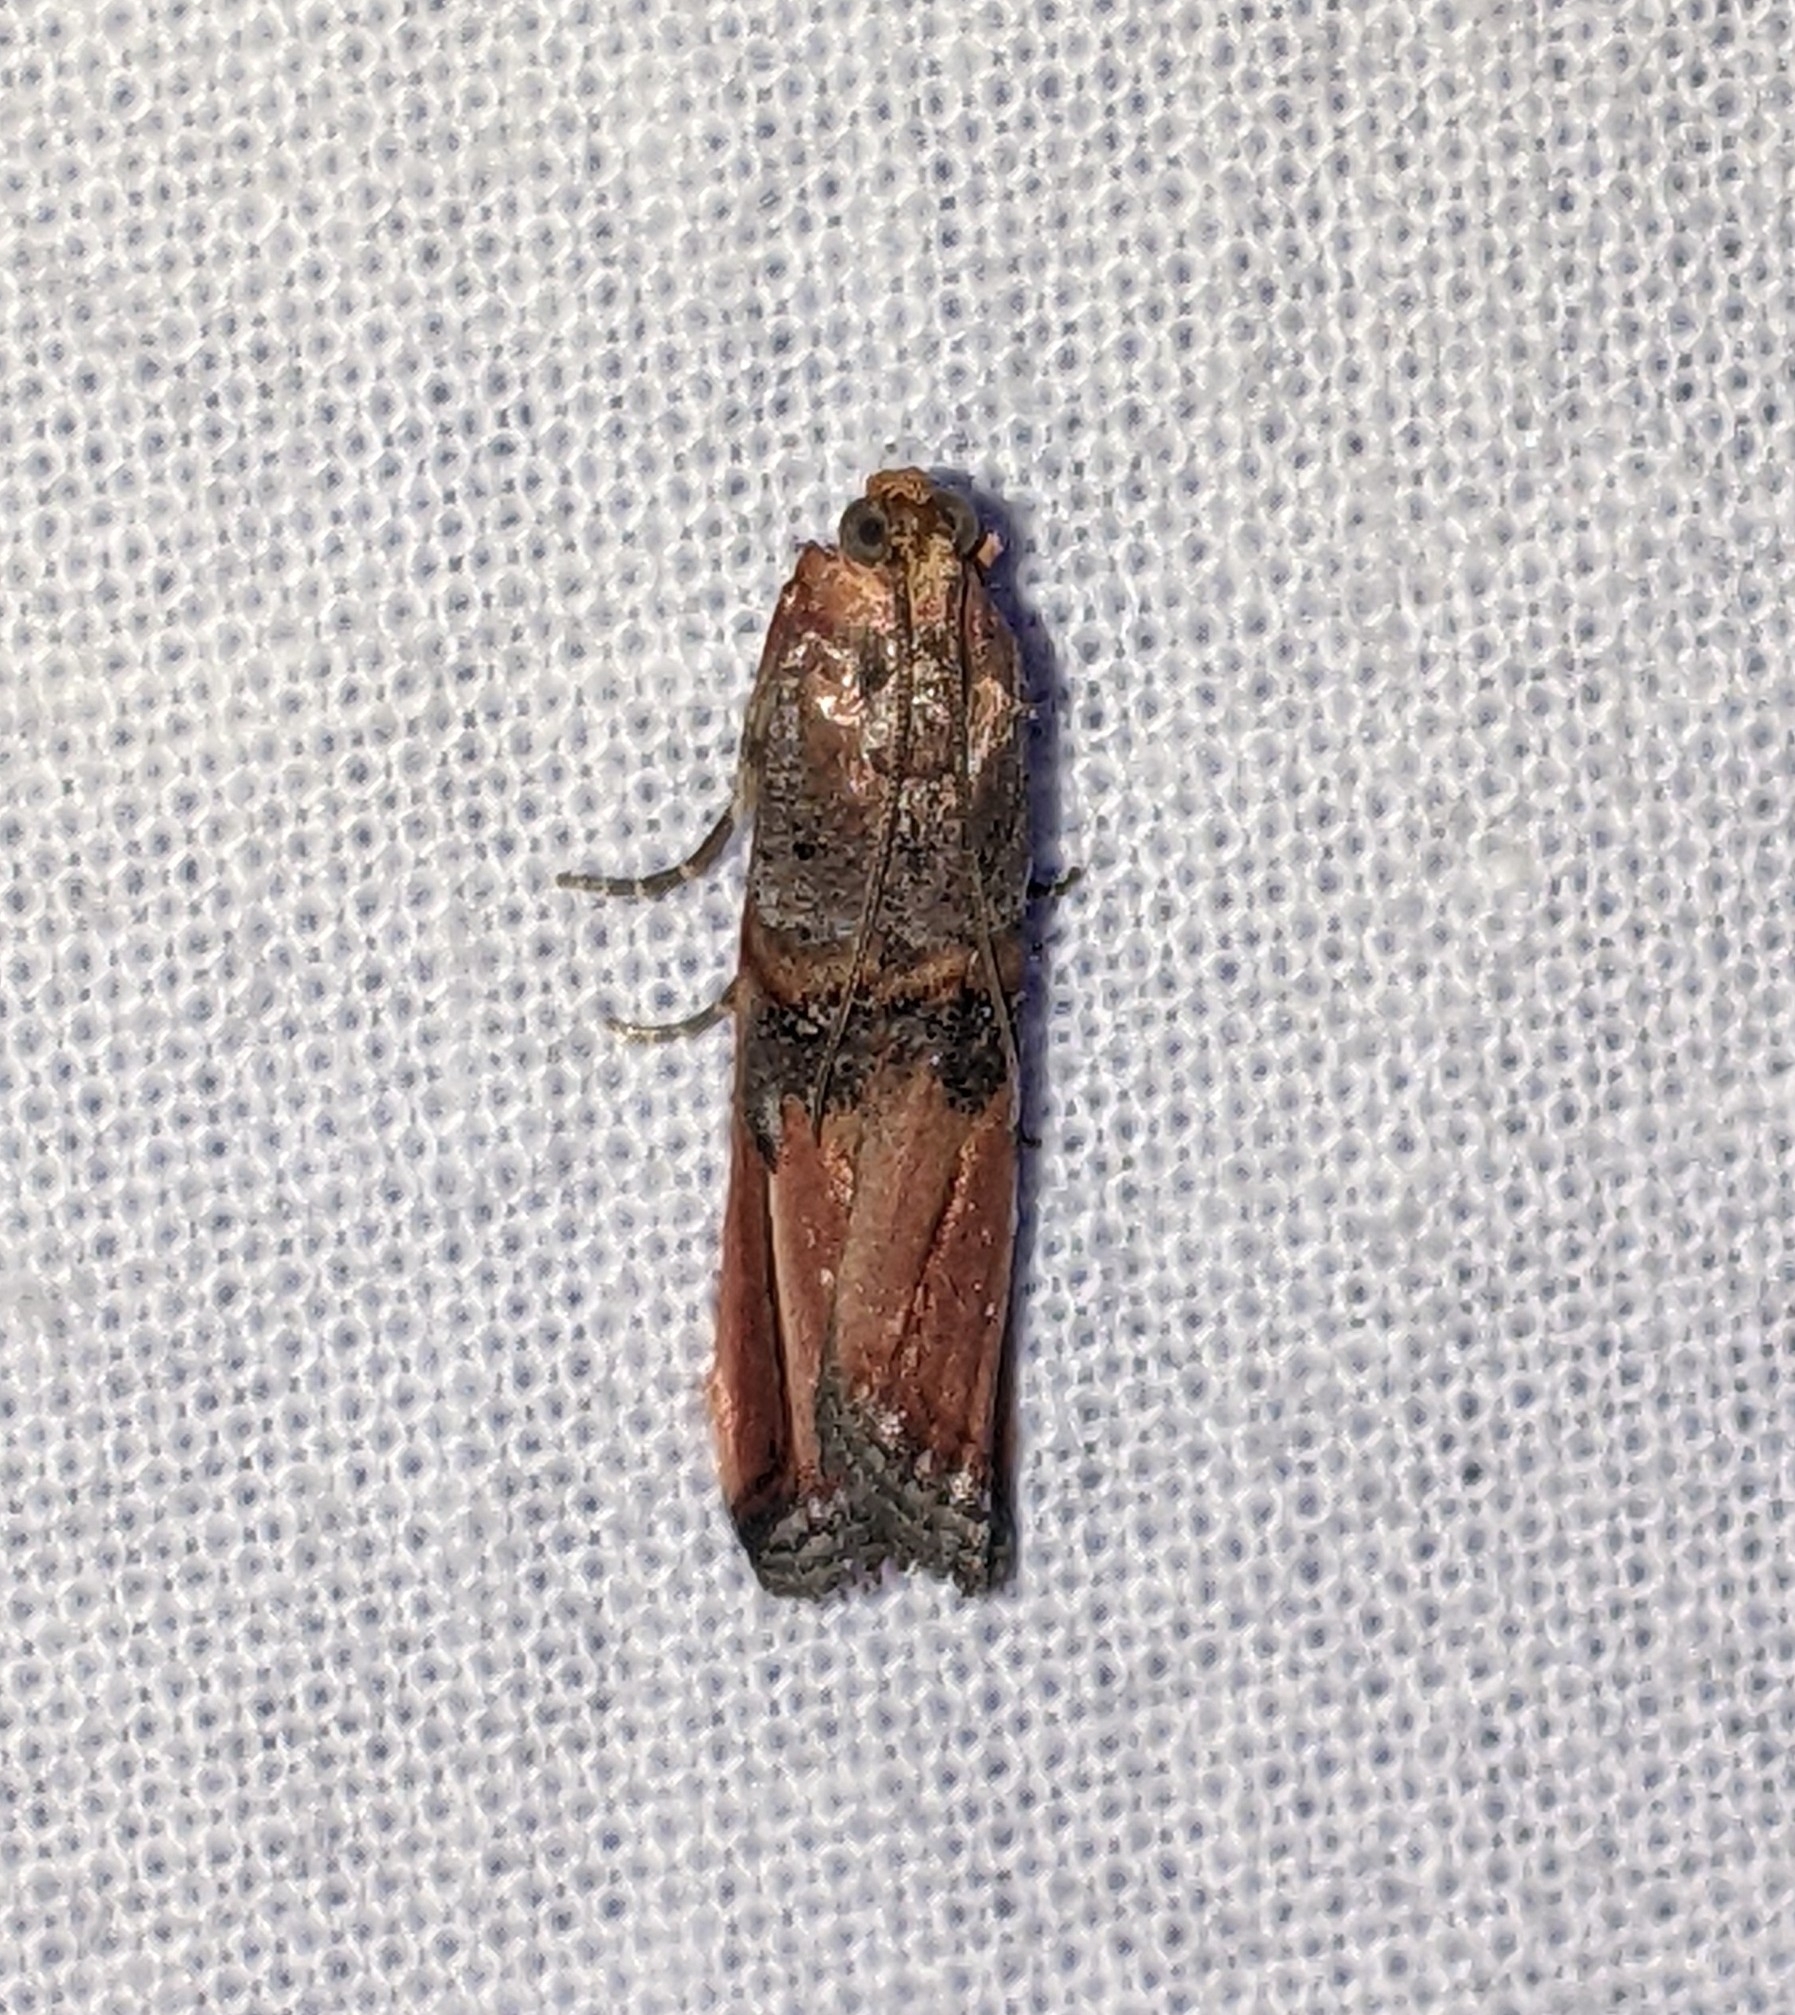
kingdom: Animalia
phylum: Arthropoda
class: Insecta
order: Lepidoptera
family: Pyralidae
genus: Dasypyga
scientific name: Dasypyga alternosquamella
